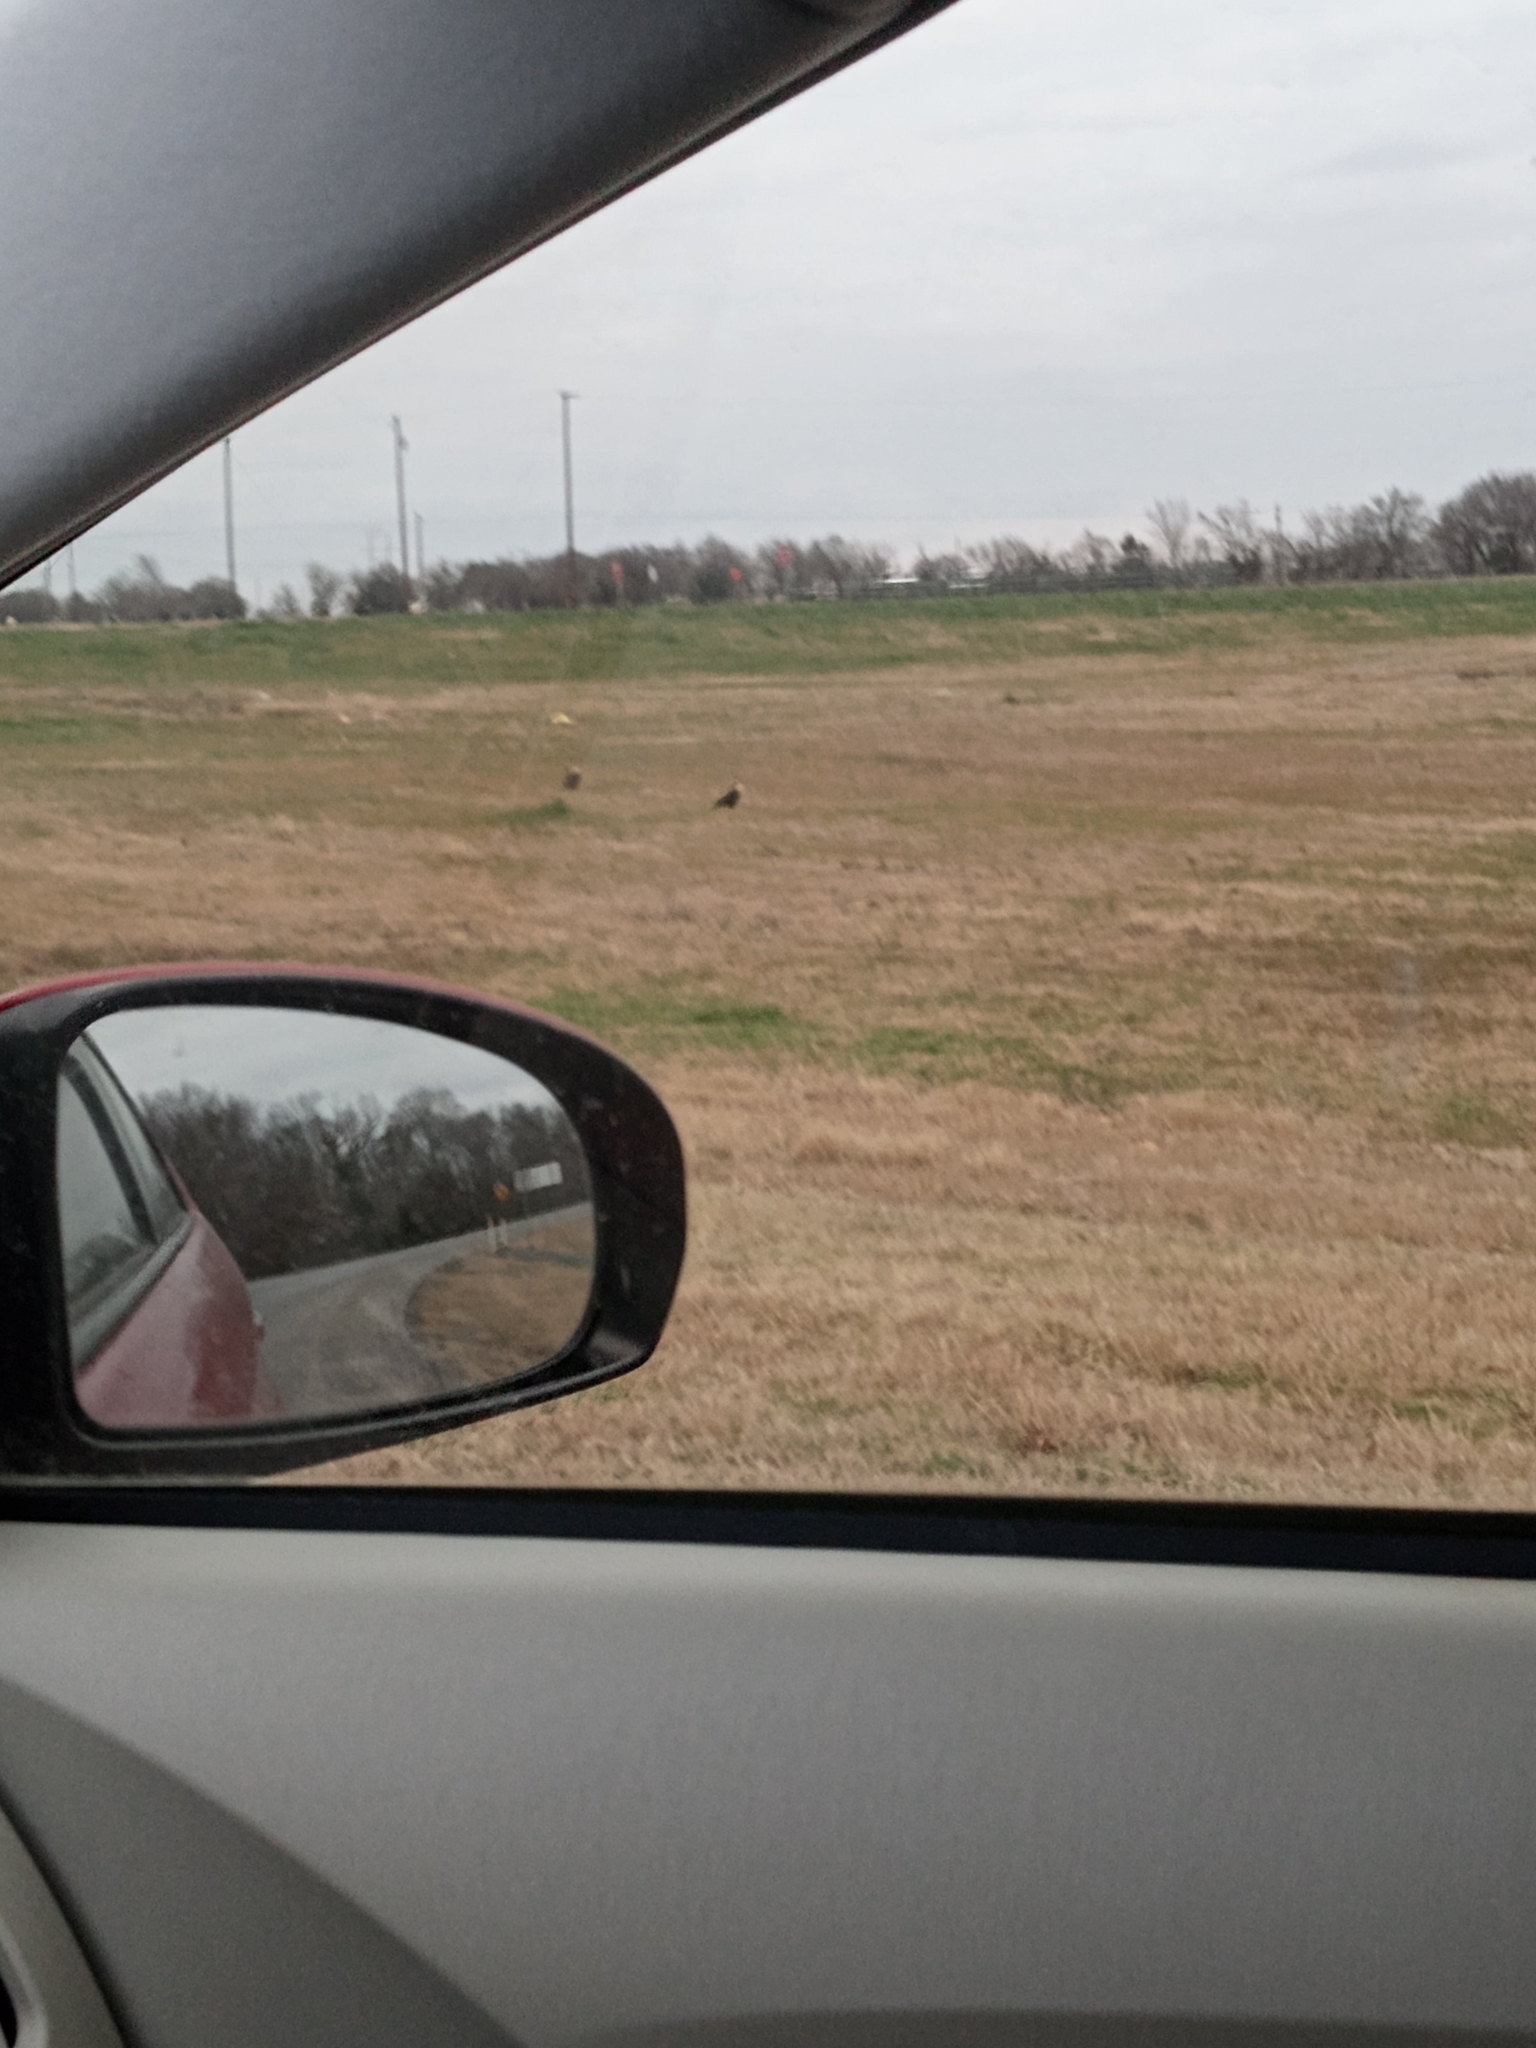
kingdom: Animalia
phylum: Chordata
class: Aves
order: Falconiformes
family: Falconidae
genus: Caracara
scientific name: Caracara plancus
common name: Southern caracara
